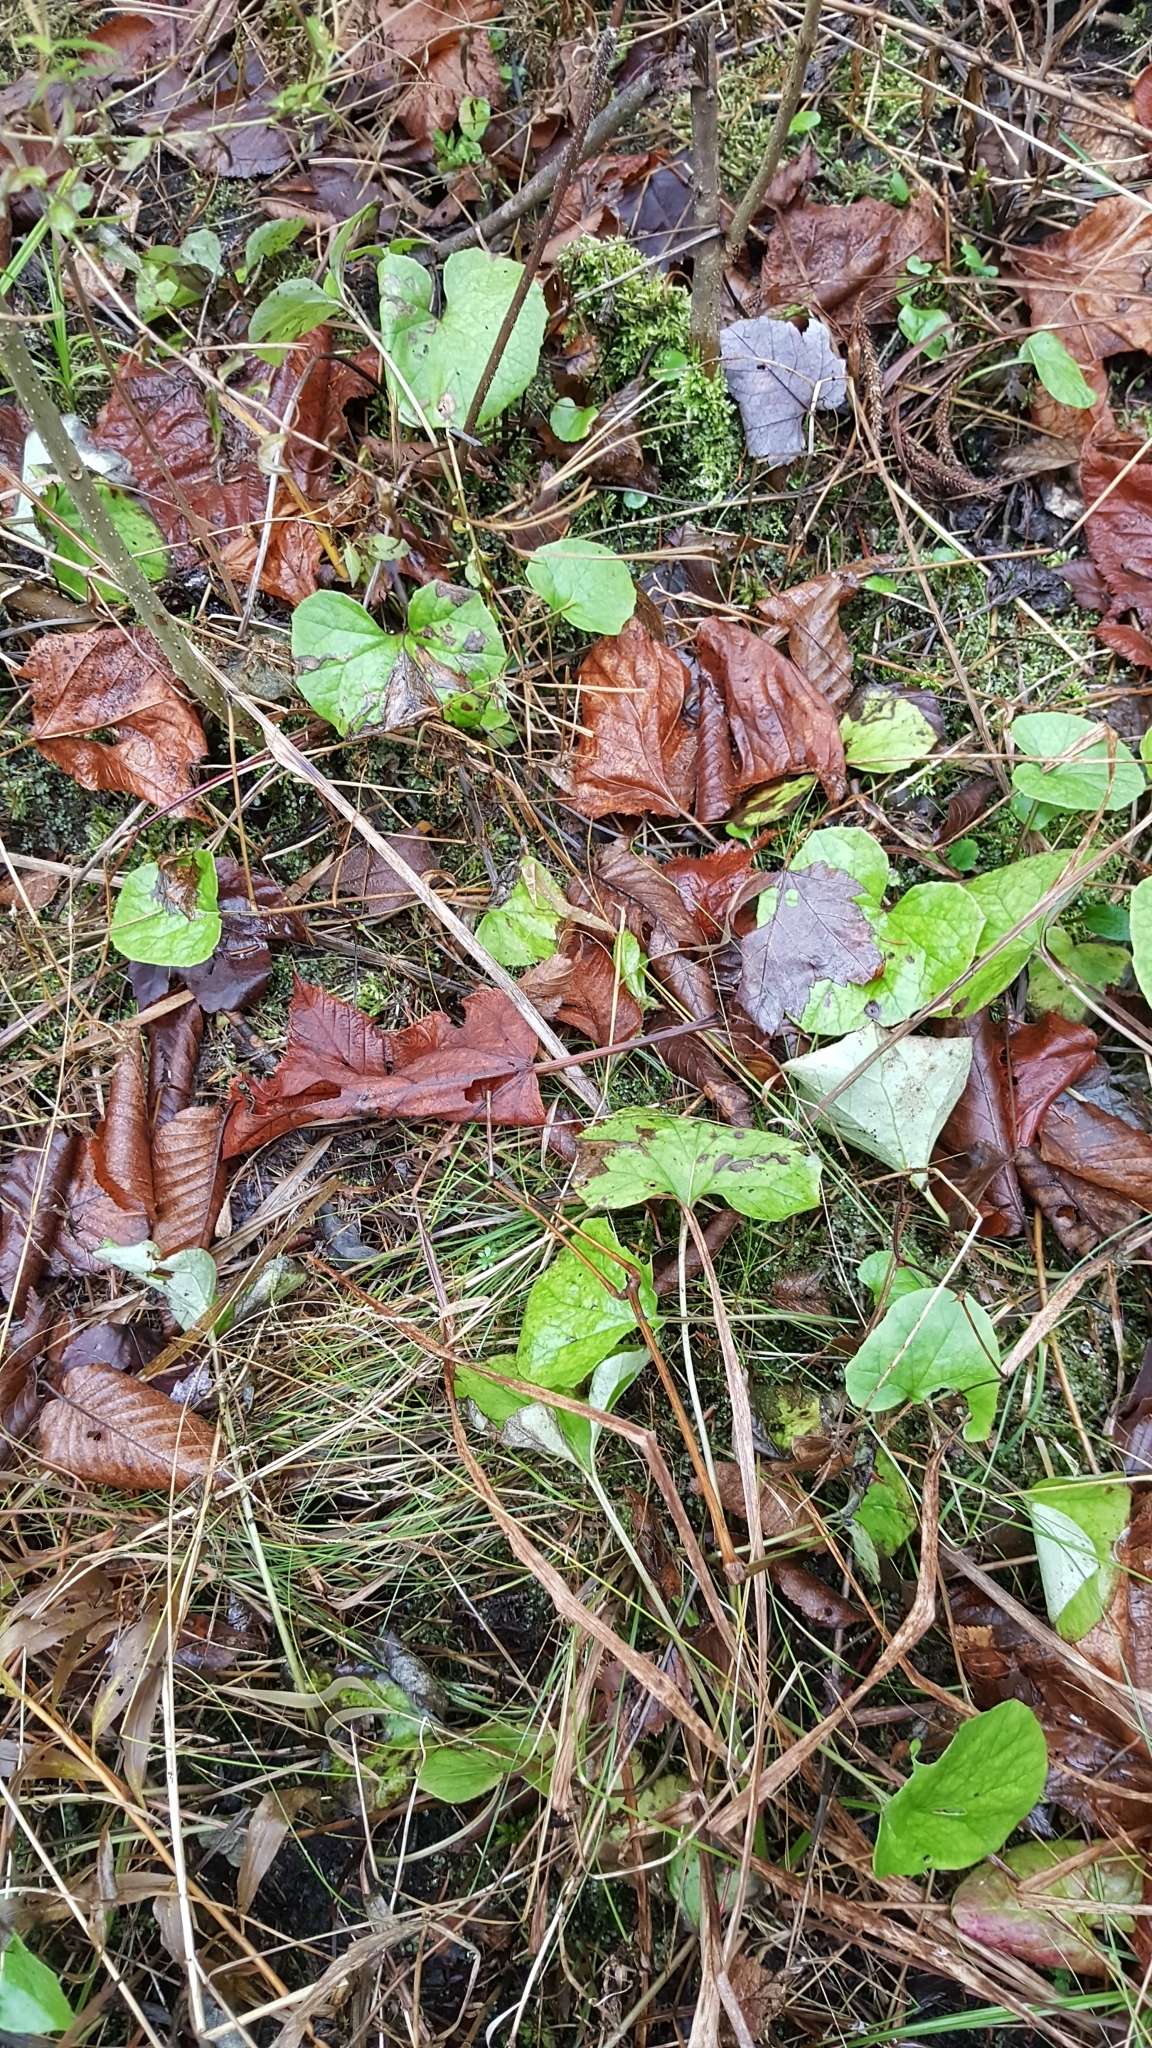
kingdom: Plantae
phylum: Tracheophyta
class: Magnoliopsida
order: Asterales
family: Asteraceae
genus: Tussilago
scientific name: Tussilago farfara
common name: Coltsfoot
